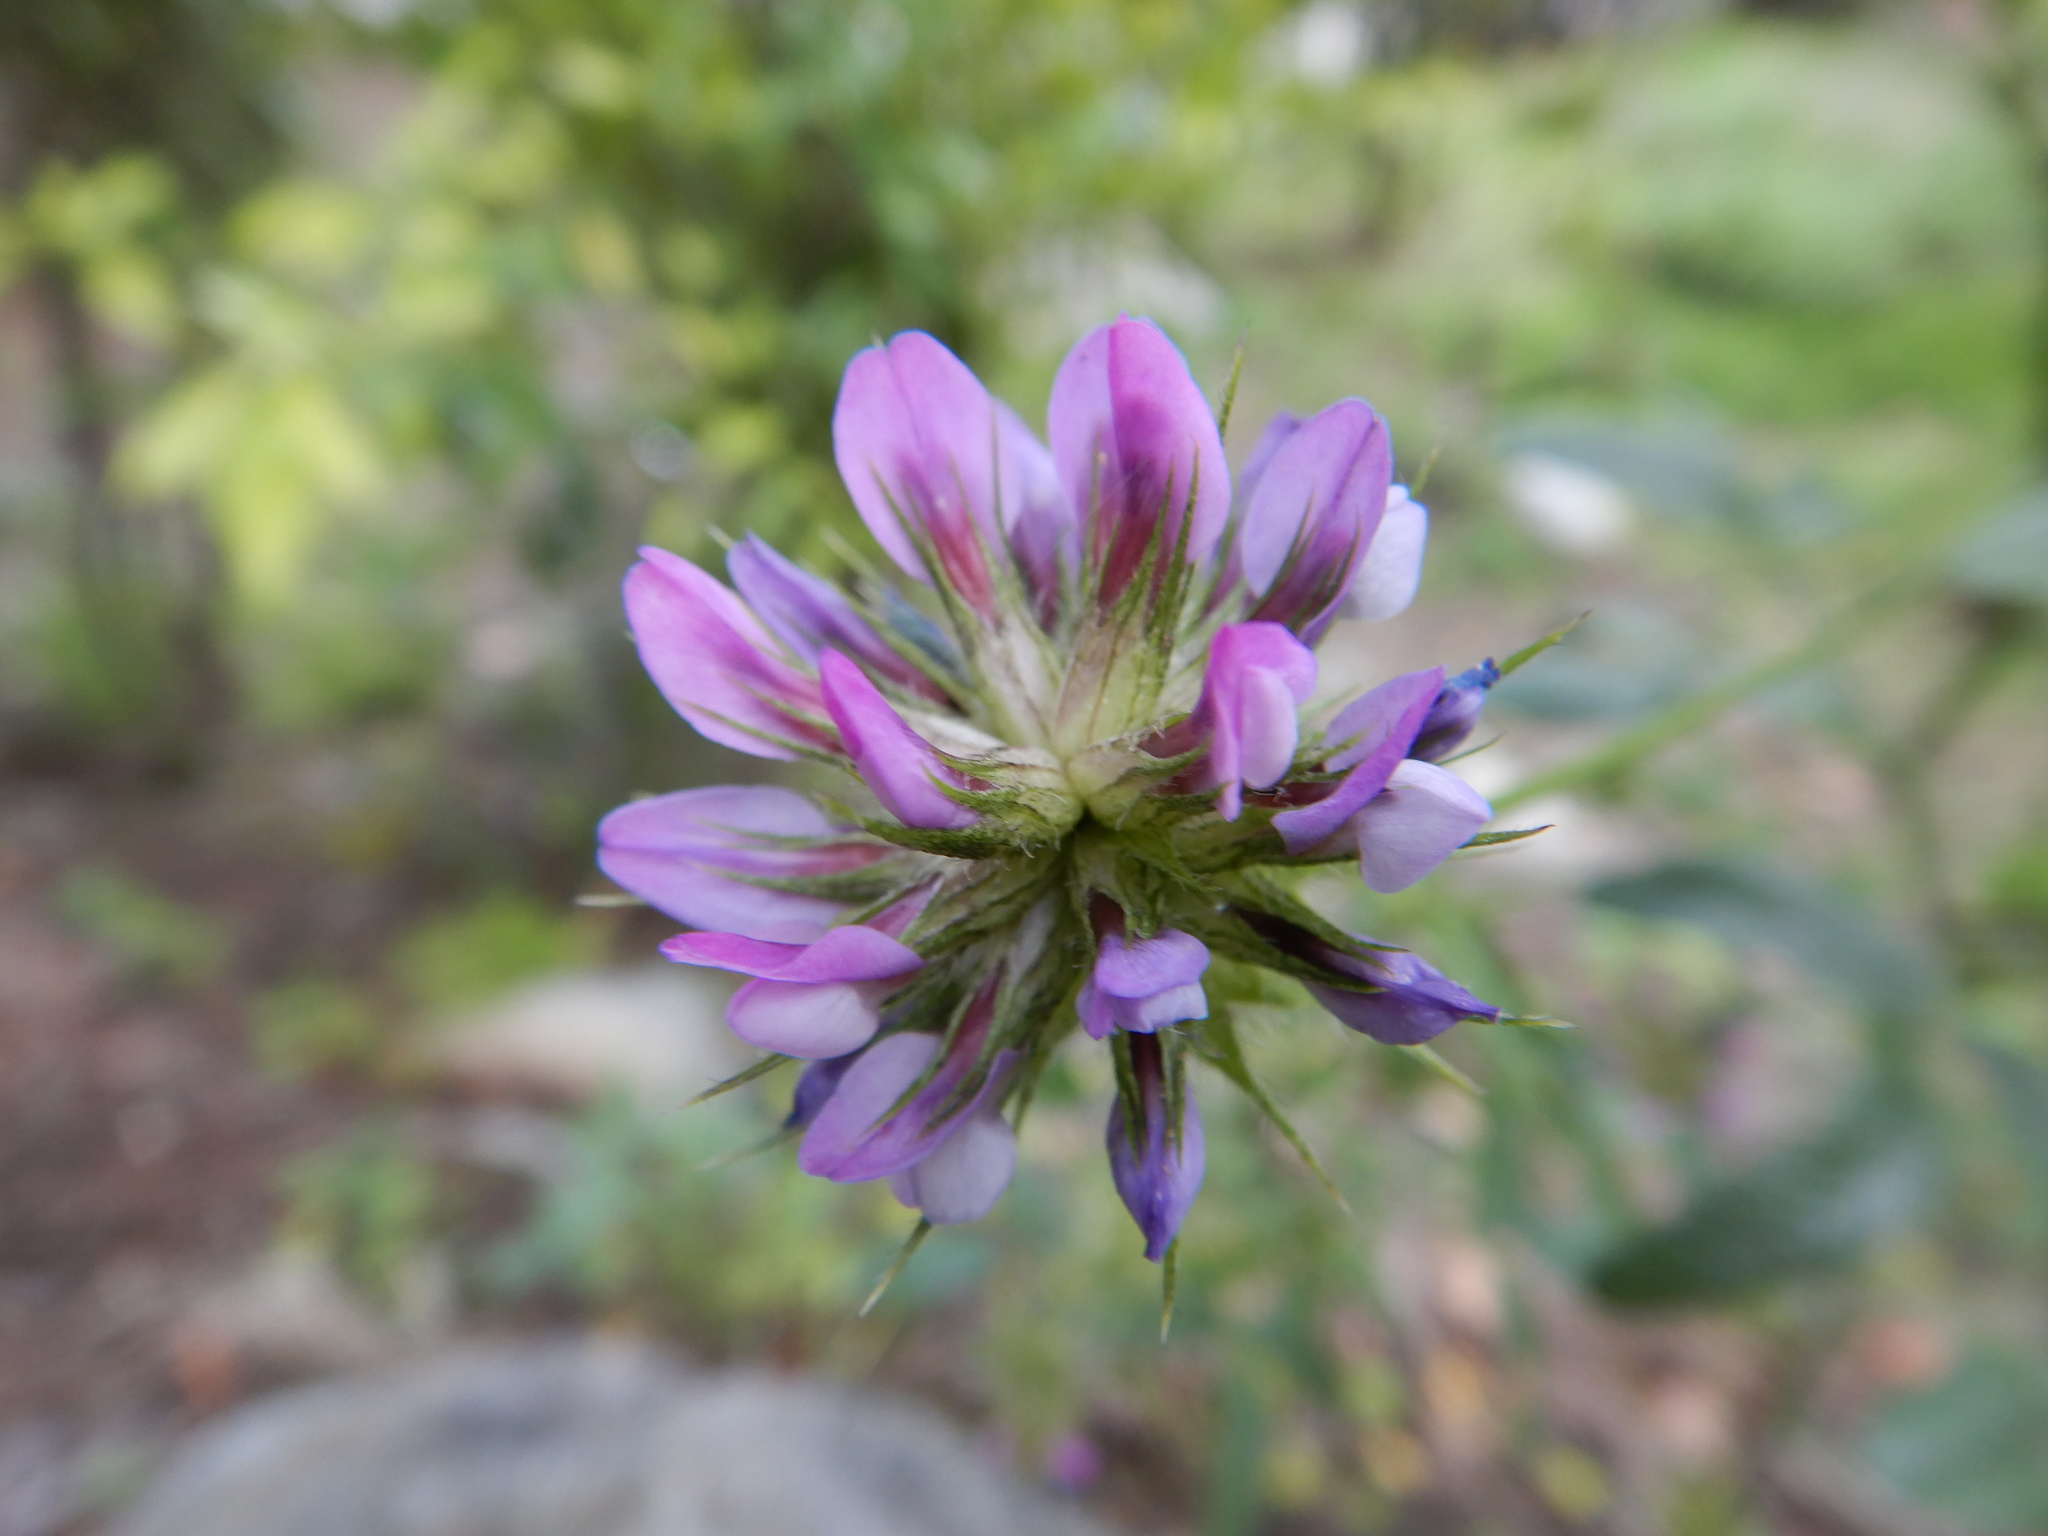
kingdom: Plantae
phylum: Tracheophyta
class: Magnoliopsida
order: Fabales
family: Fabaceae
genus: Bituminaria
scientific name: Bituminaria bituminosa
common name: Arabian pea
